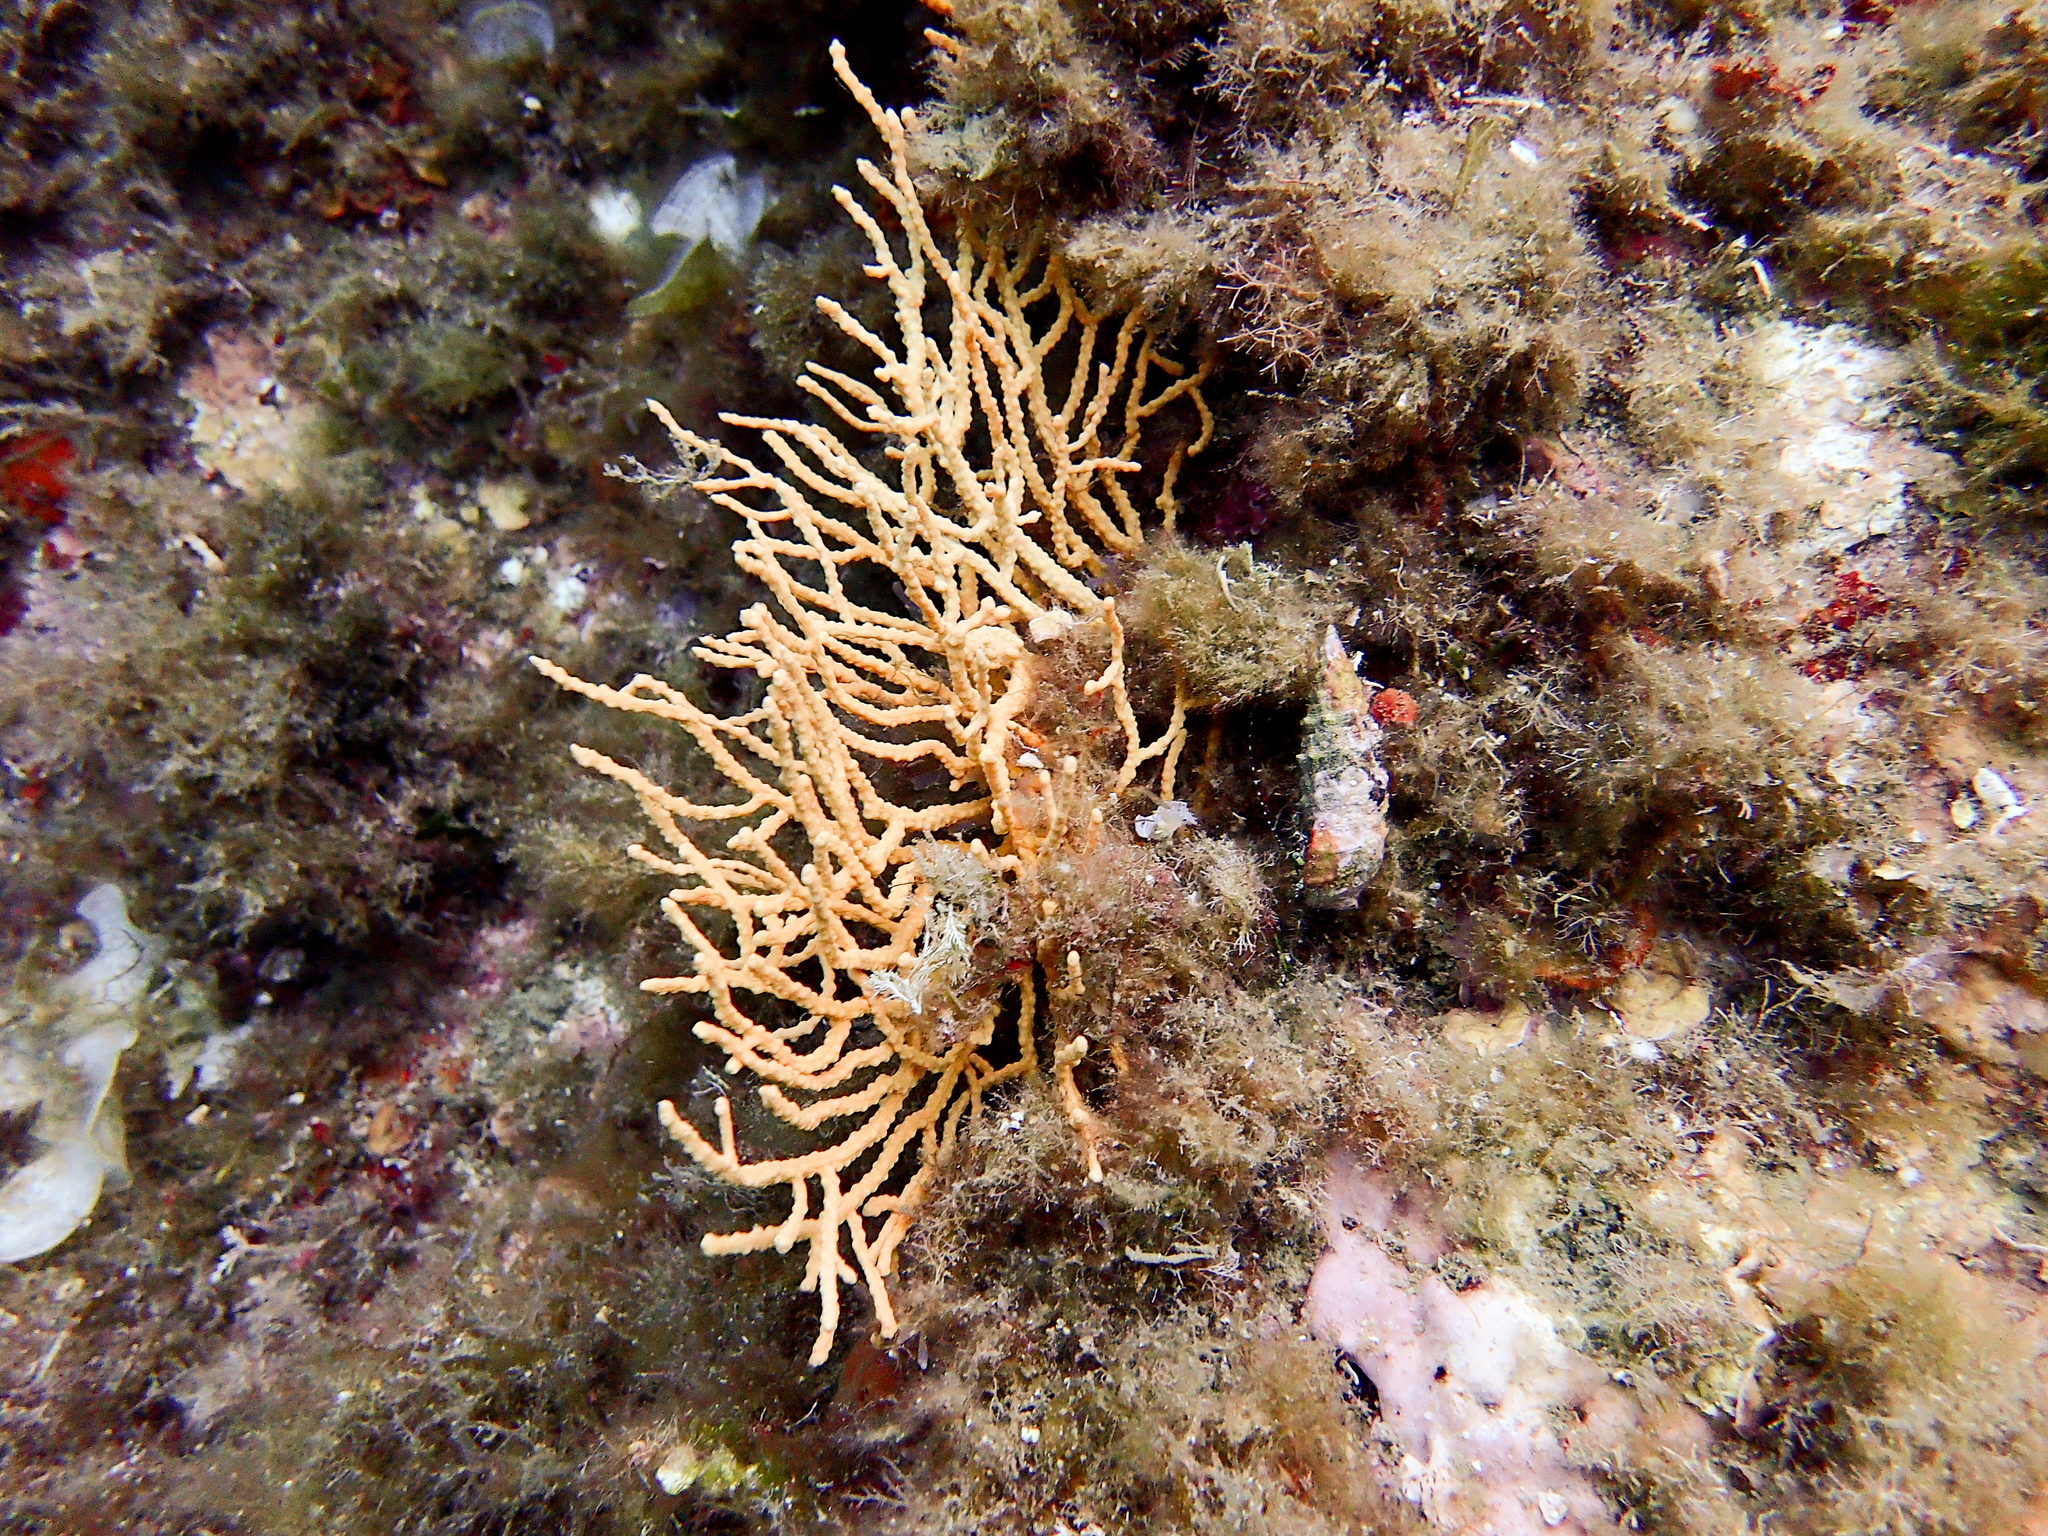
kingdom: Animalia
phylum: Cnidaria
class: Anthozoa
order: Malacalcyonacea
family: Eunicellidae
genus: Eunicella
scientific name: Eunicella cavolini
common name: Yellow gorgonian
